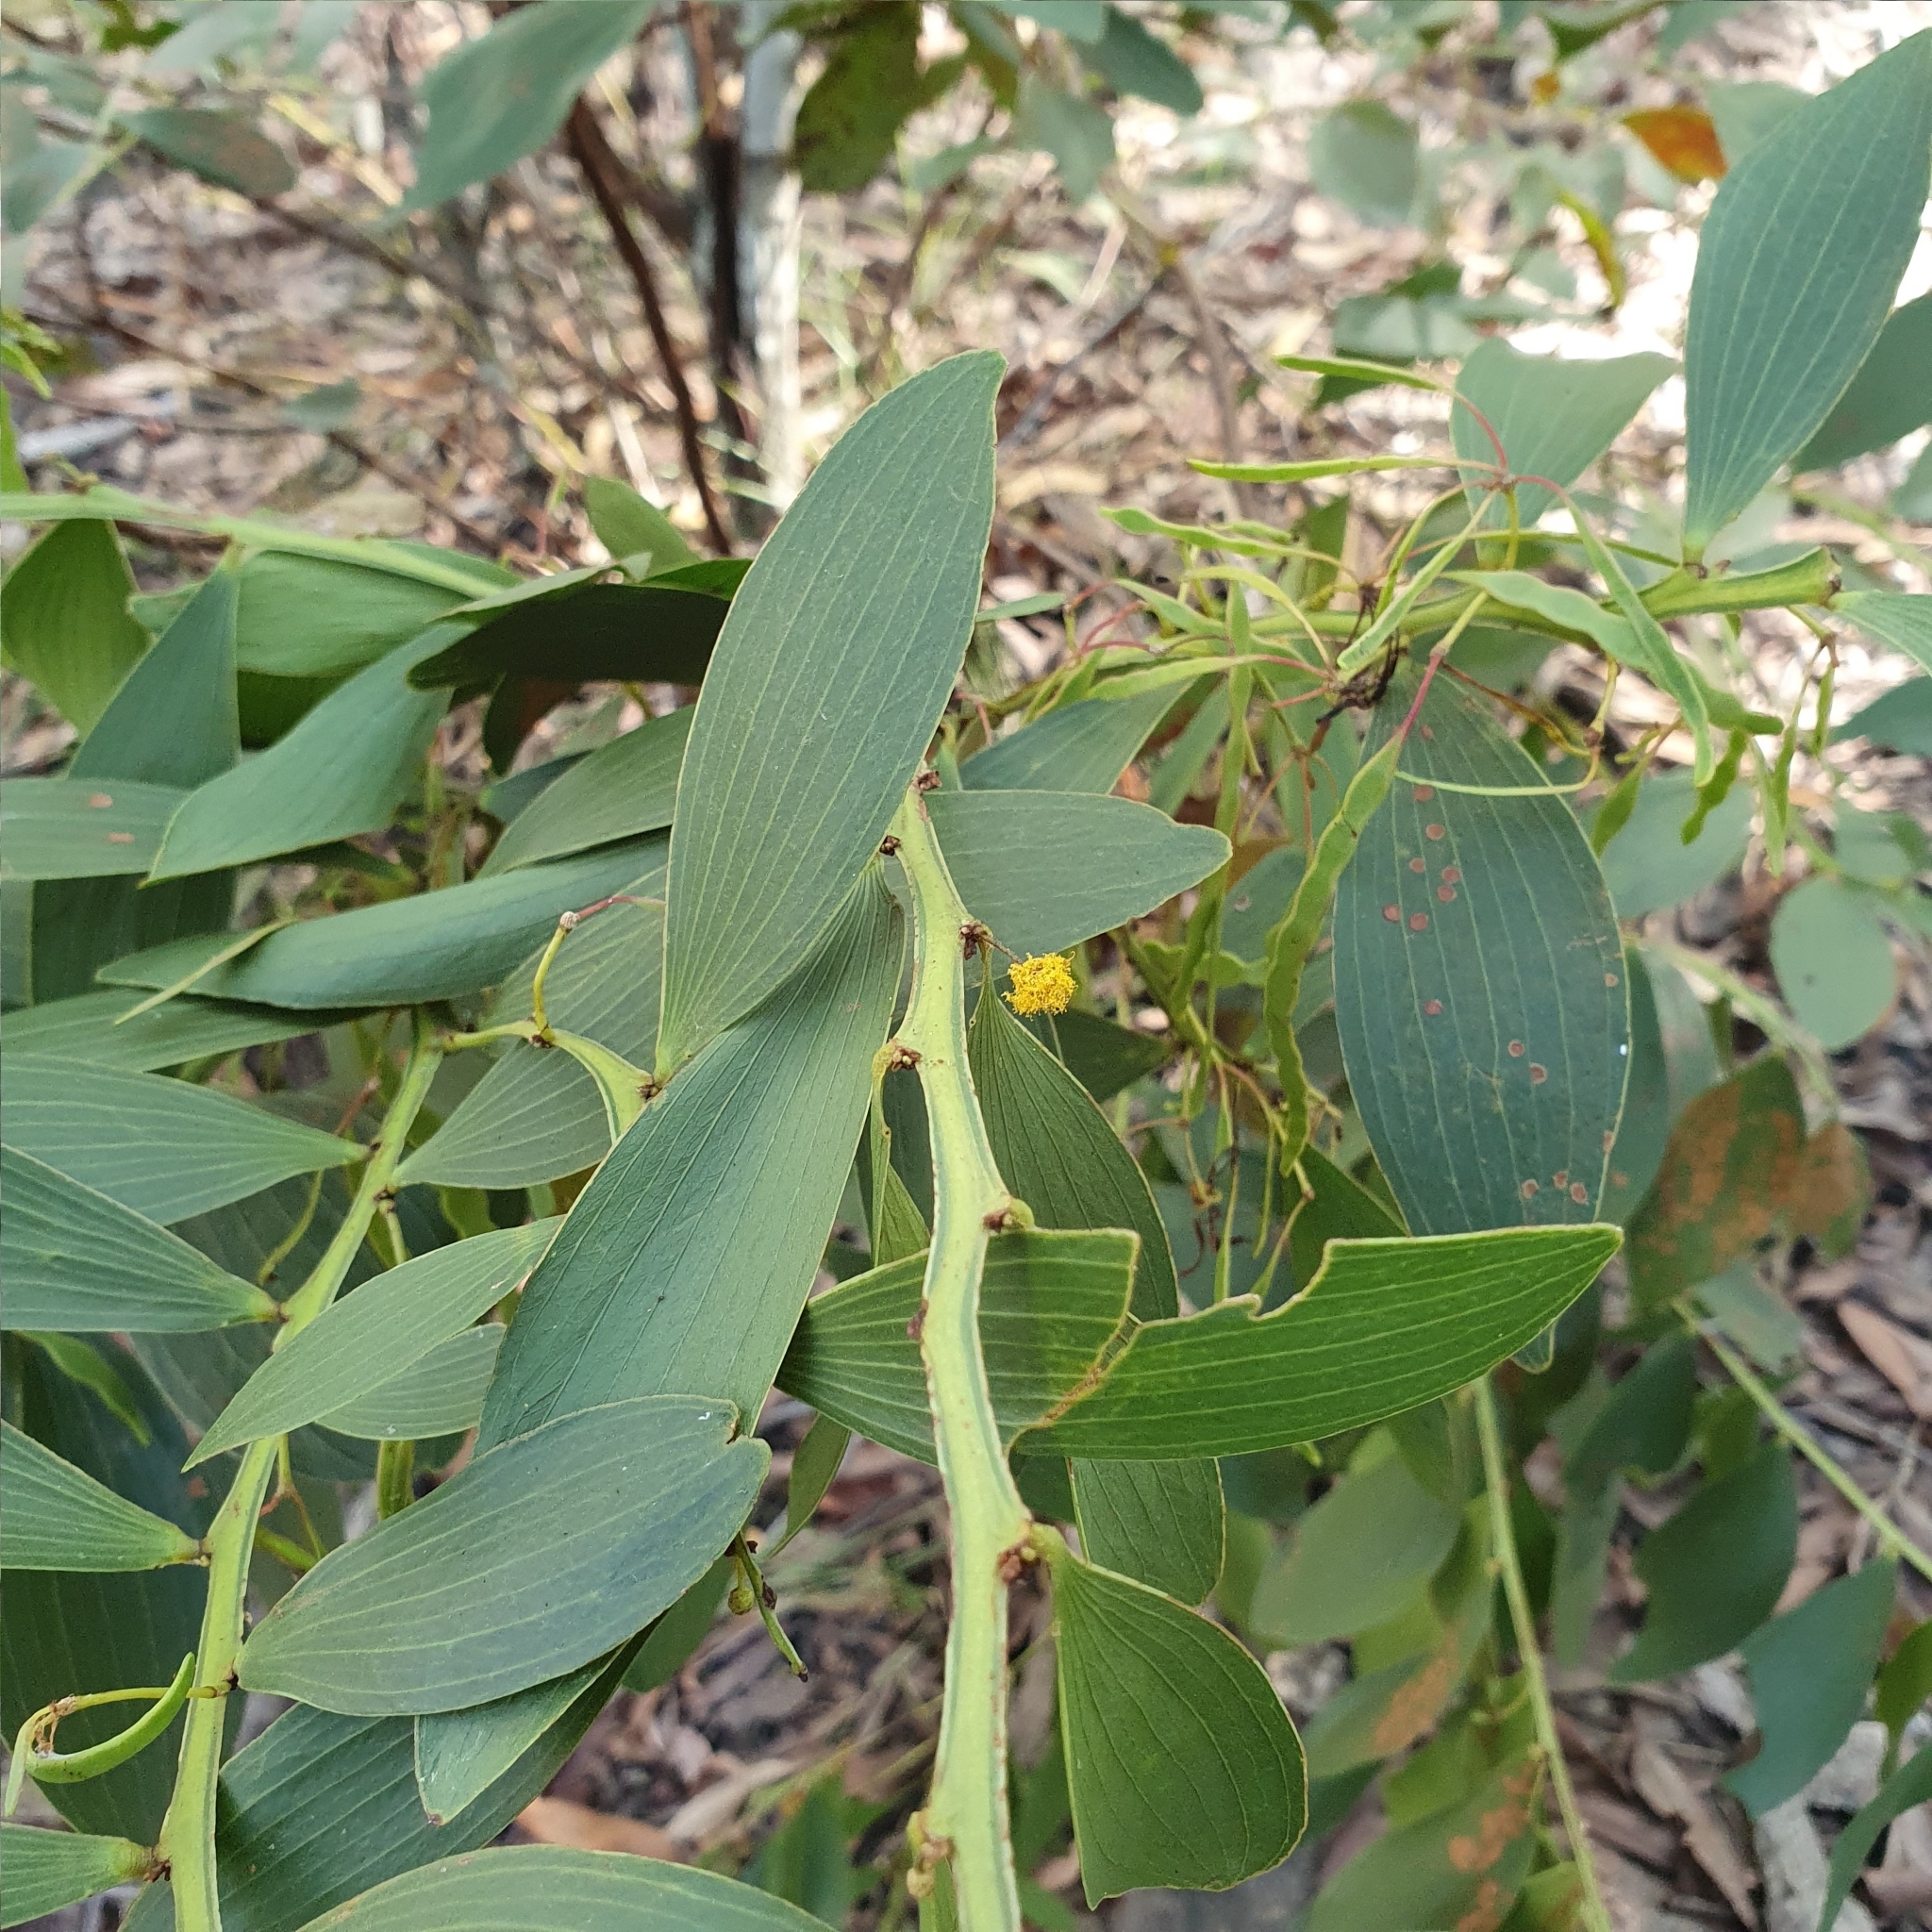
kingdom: Plantae
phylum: Tracheophyta
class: Magnoliopsida
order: Fabales
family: Fabaceae
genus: Acacia
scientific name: Acacia complanata
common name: Flat-stemmed wattle
